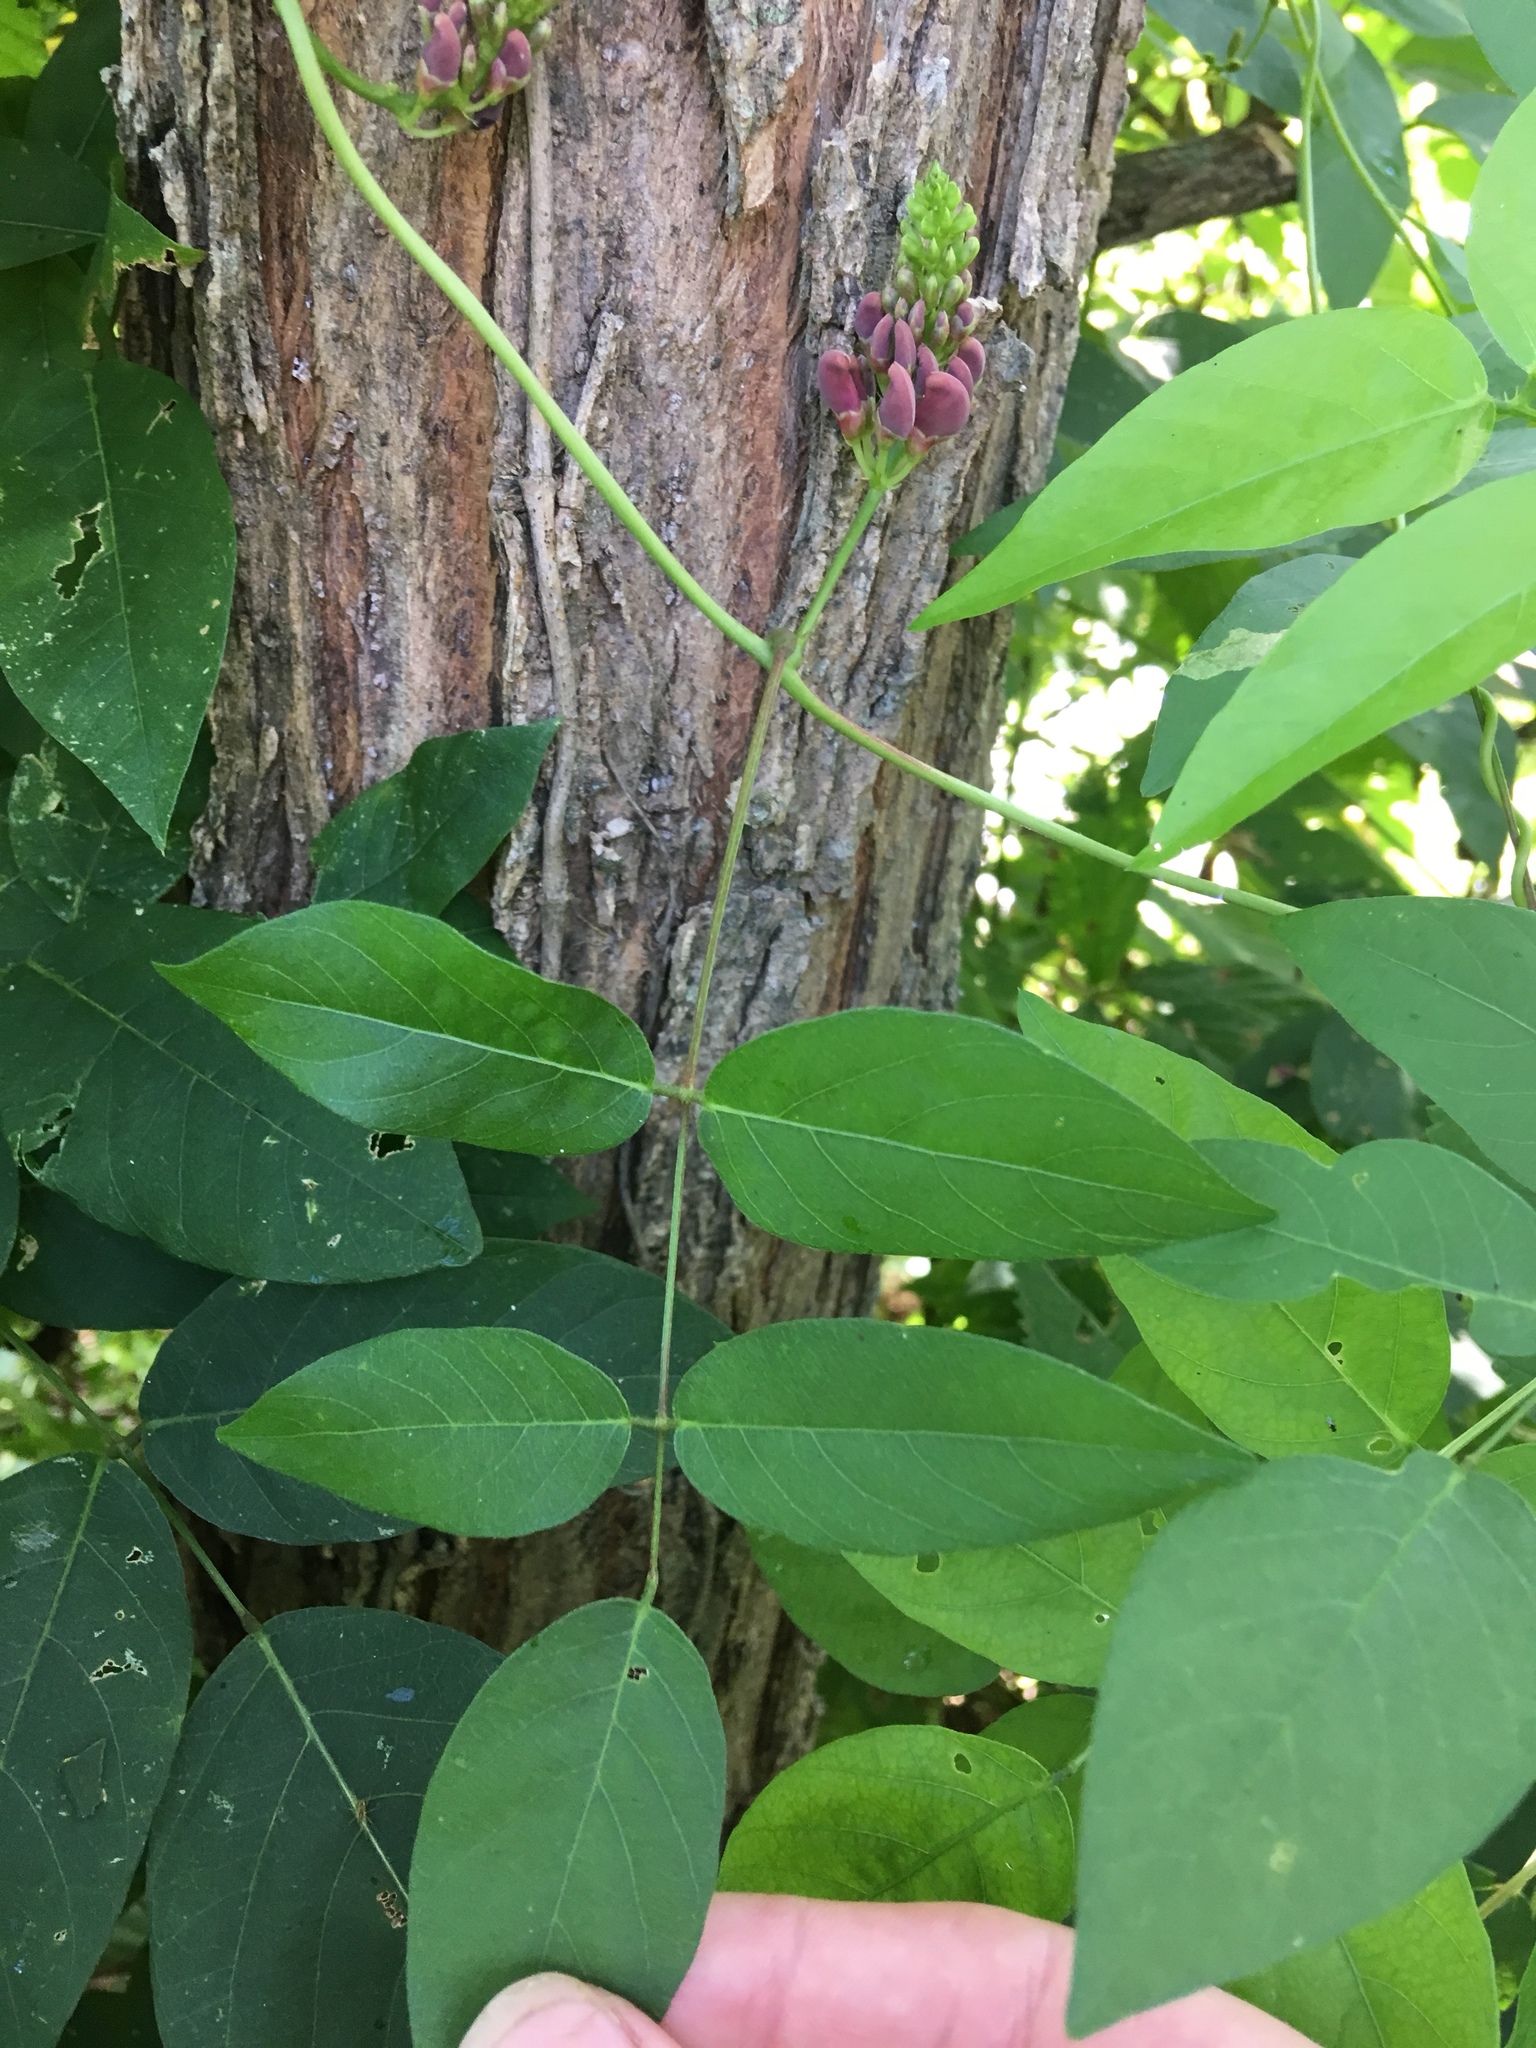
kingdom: Plantae
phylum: Tracheophyta
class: Magnoliopsida
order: Fabales
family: Fabaceae
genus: Apios
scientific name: Apios americana
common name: American potato-bean
